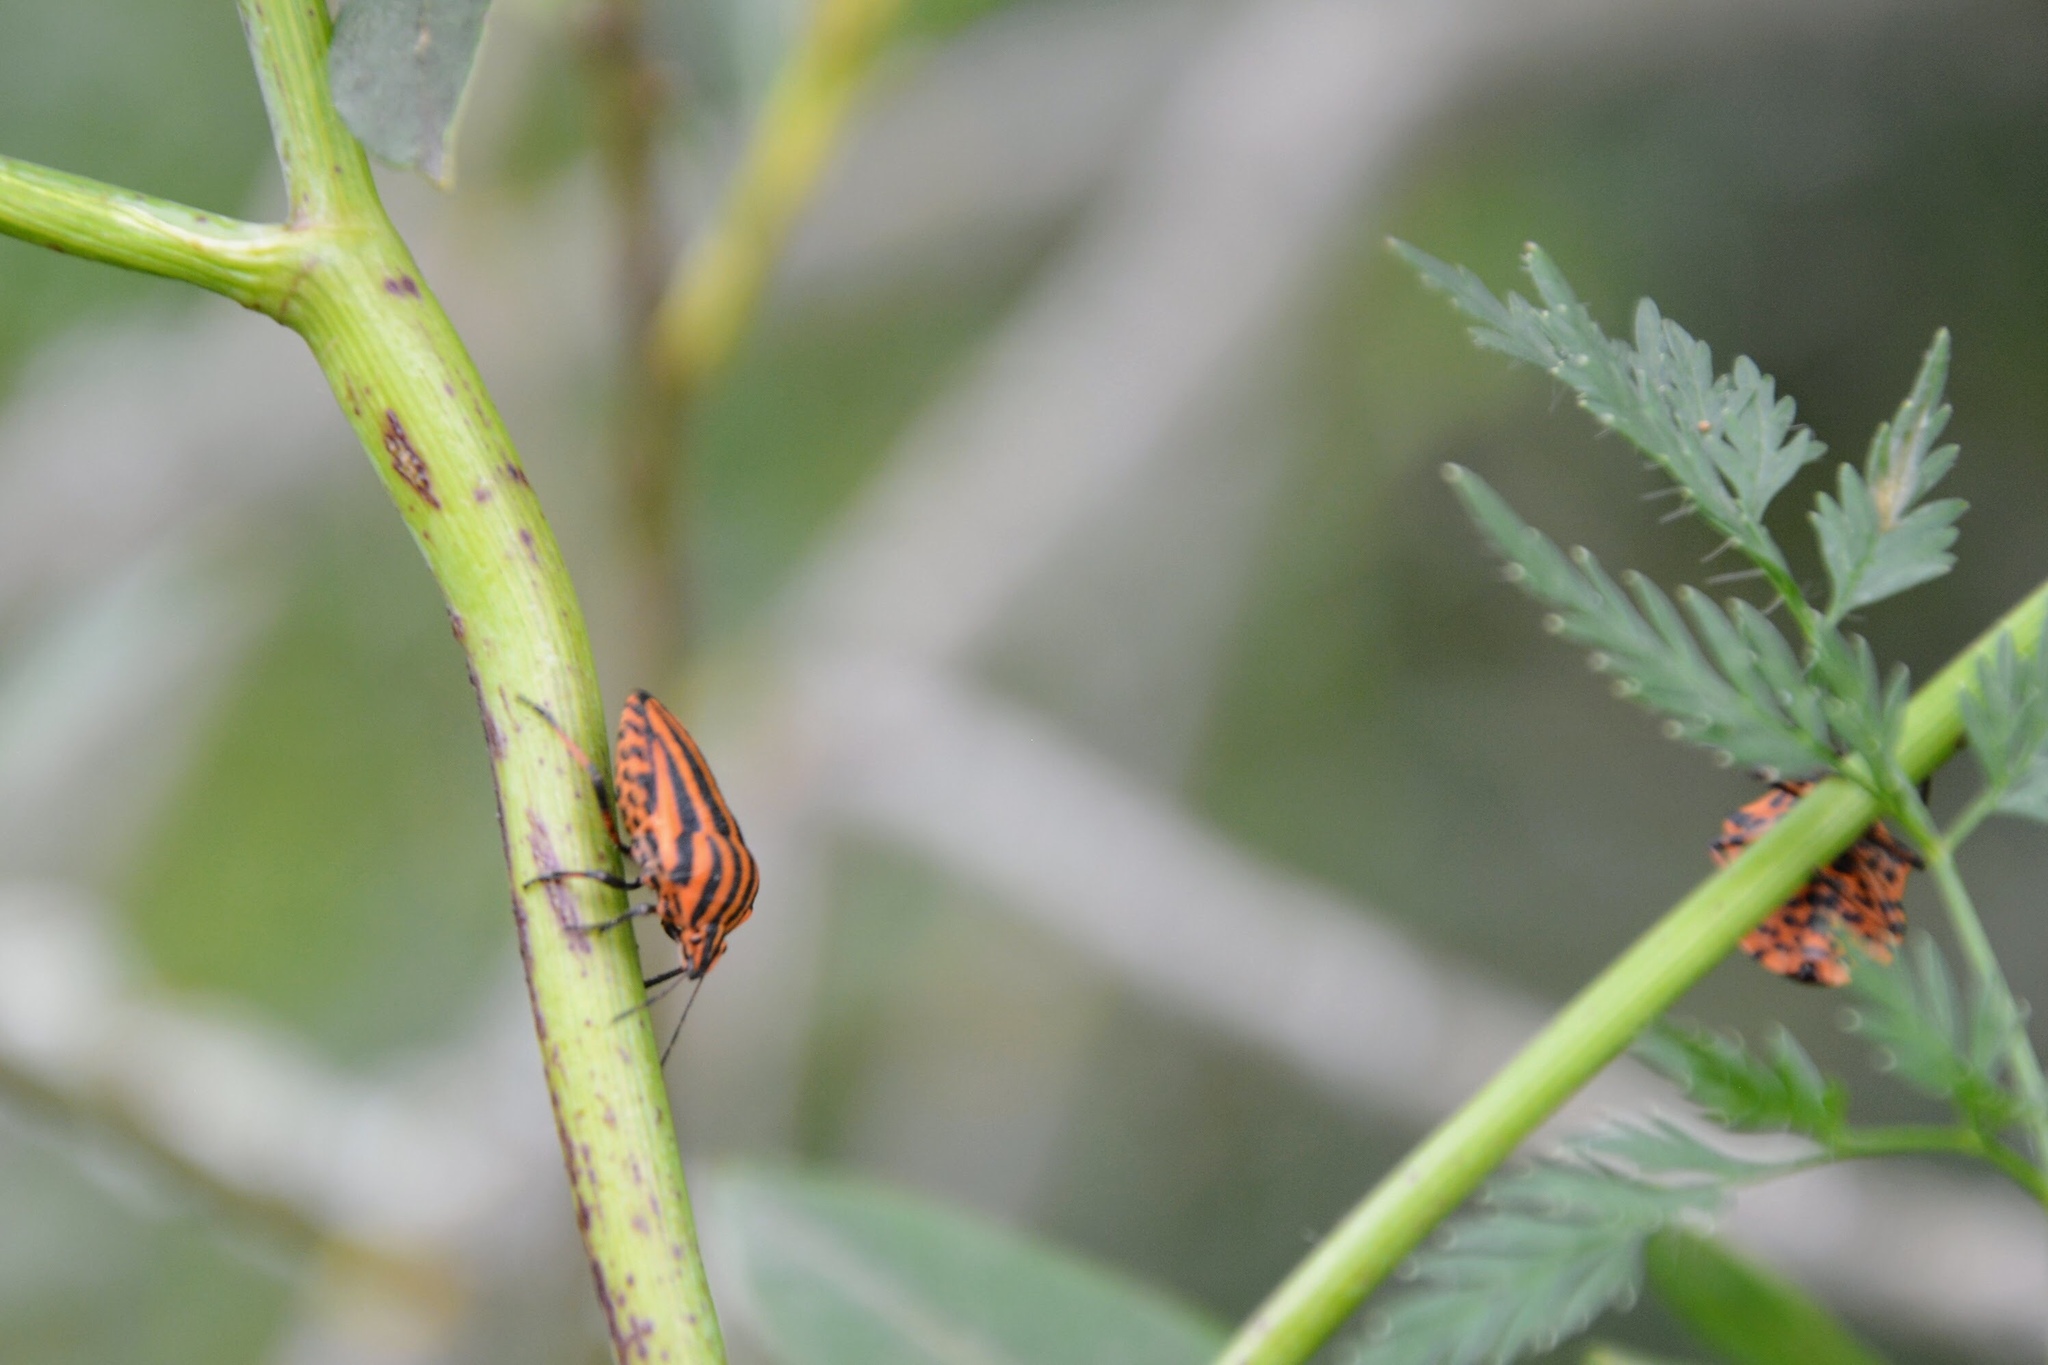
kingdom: Animalia
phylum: Arthropoda
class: Insecta
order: Hemiptera
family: Pentatomidae
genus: Graphosoma
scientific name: Graphosoma italicum
